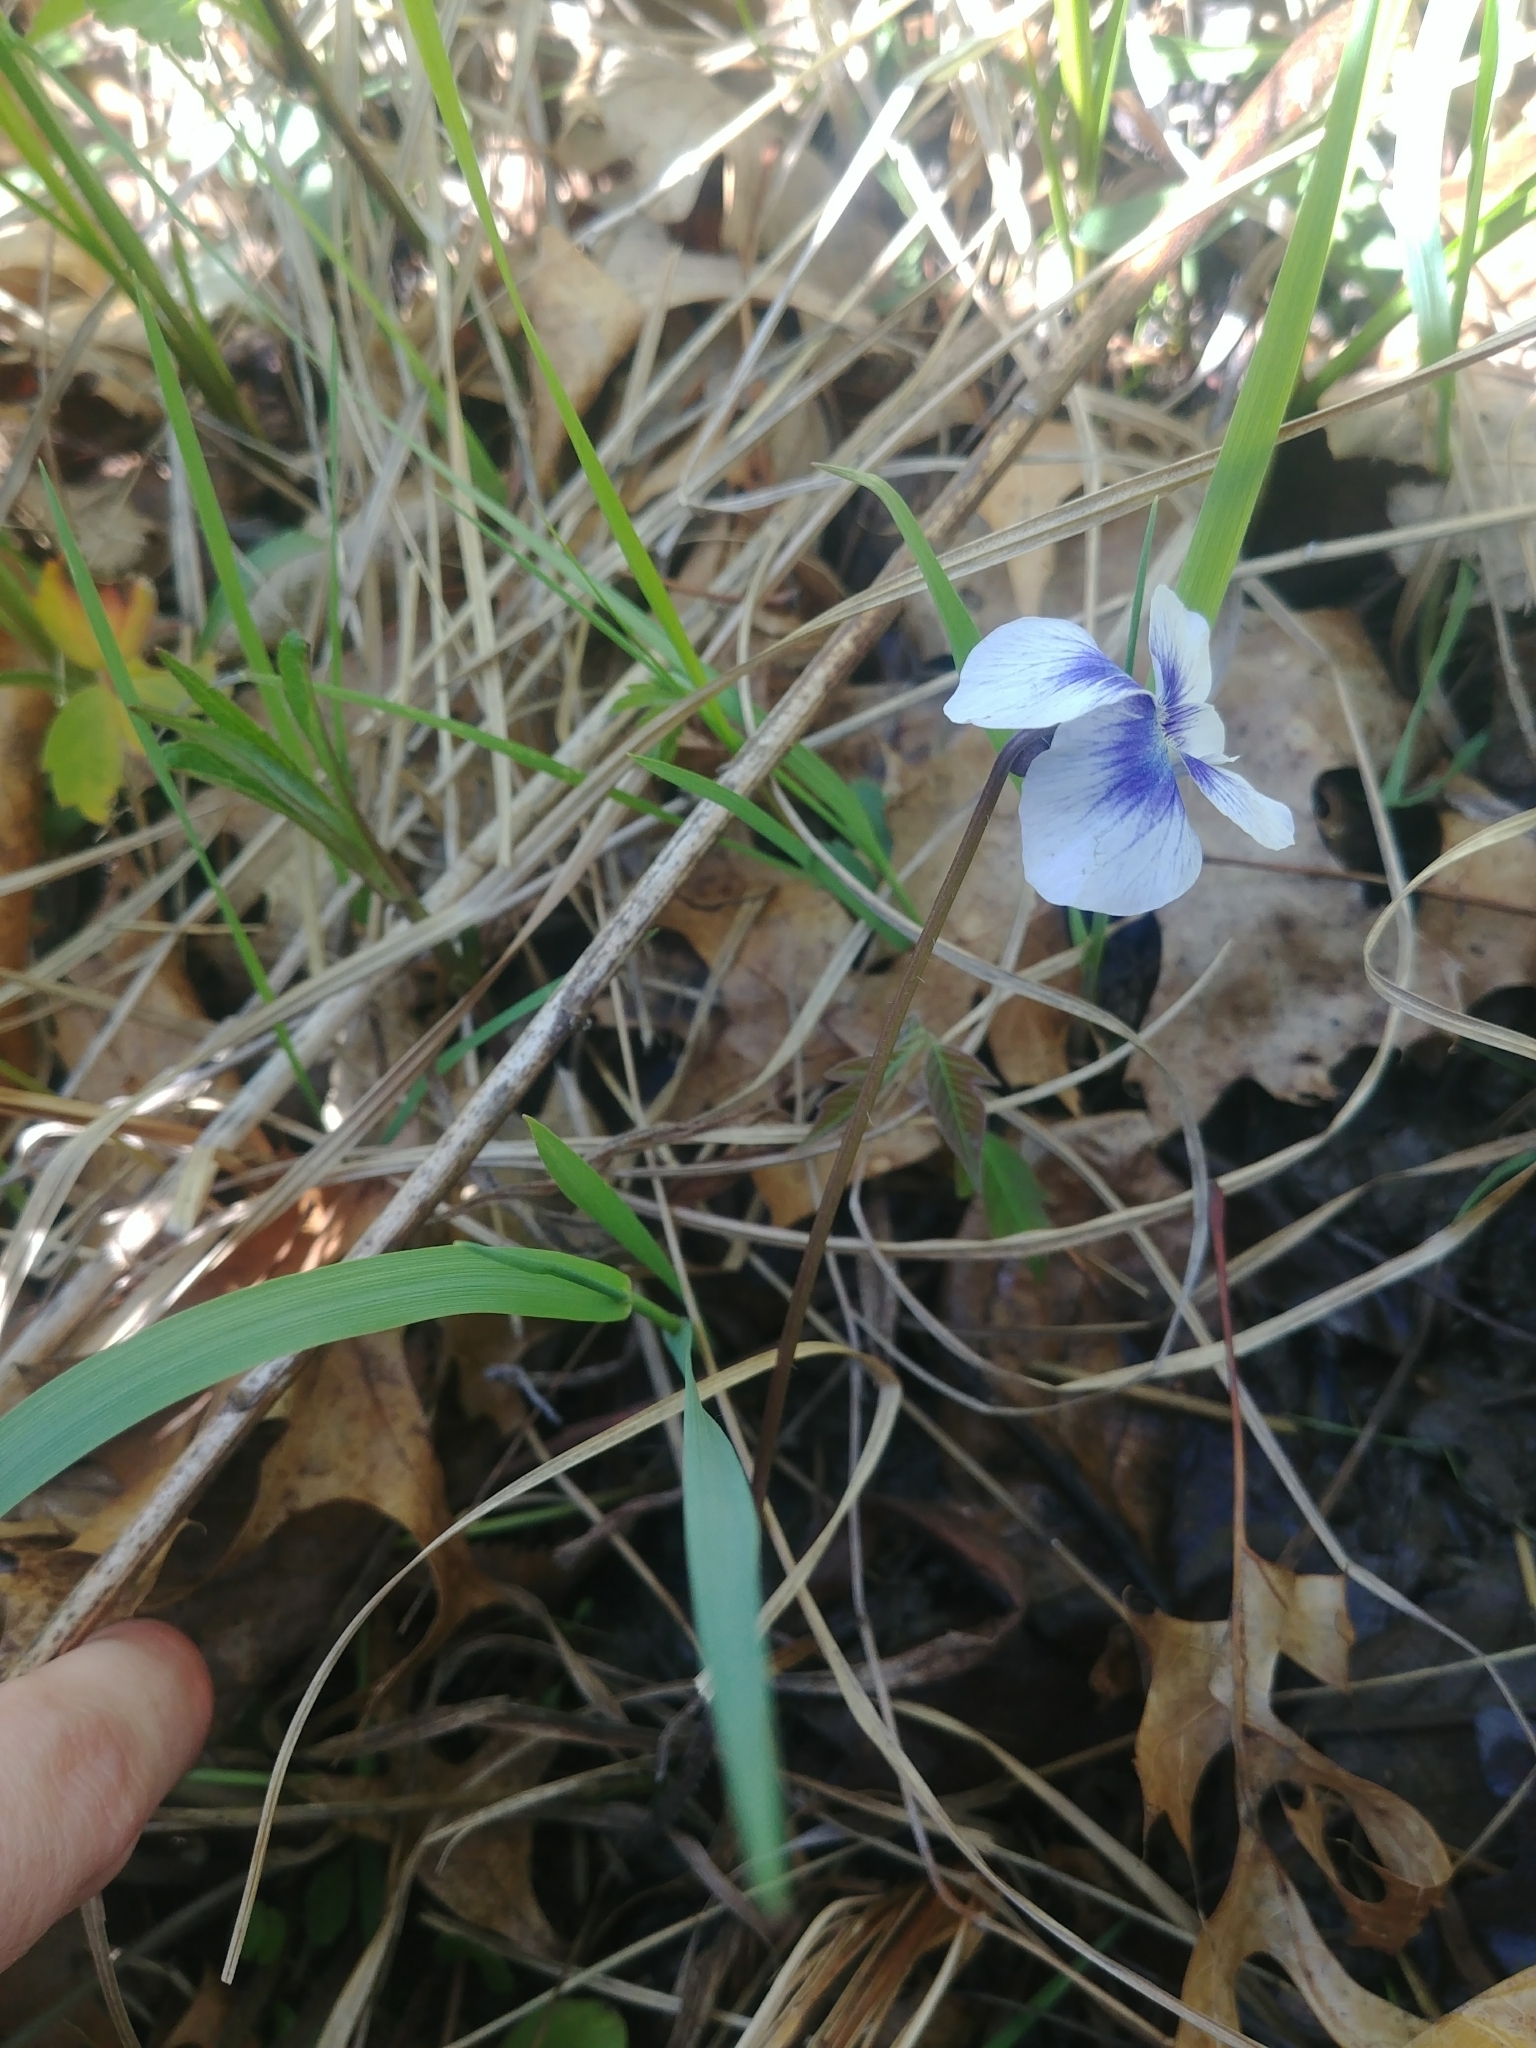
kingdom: Plantae
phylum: Tracheophyta
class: Magnoliopsida
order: Malpighiales
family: Violaceae
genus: Viola
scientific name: Viola sororia
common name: Dooryard violet
